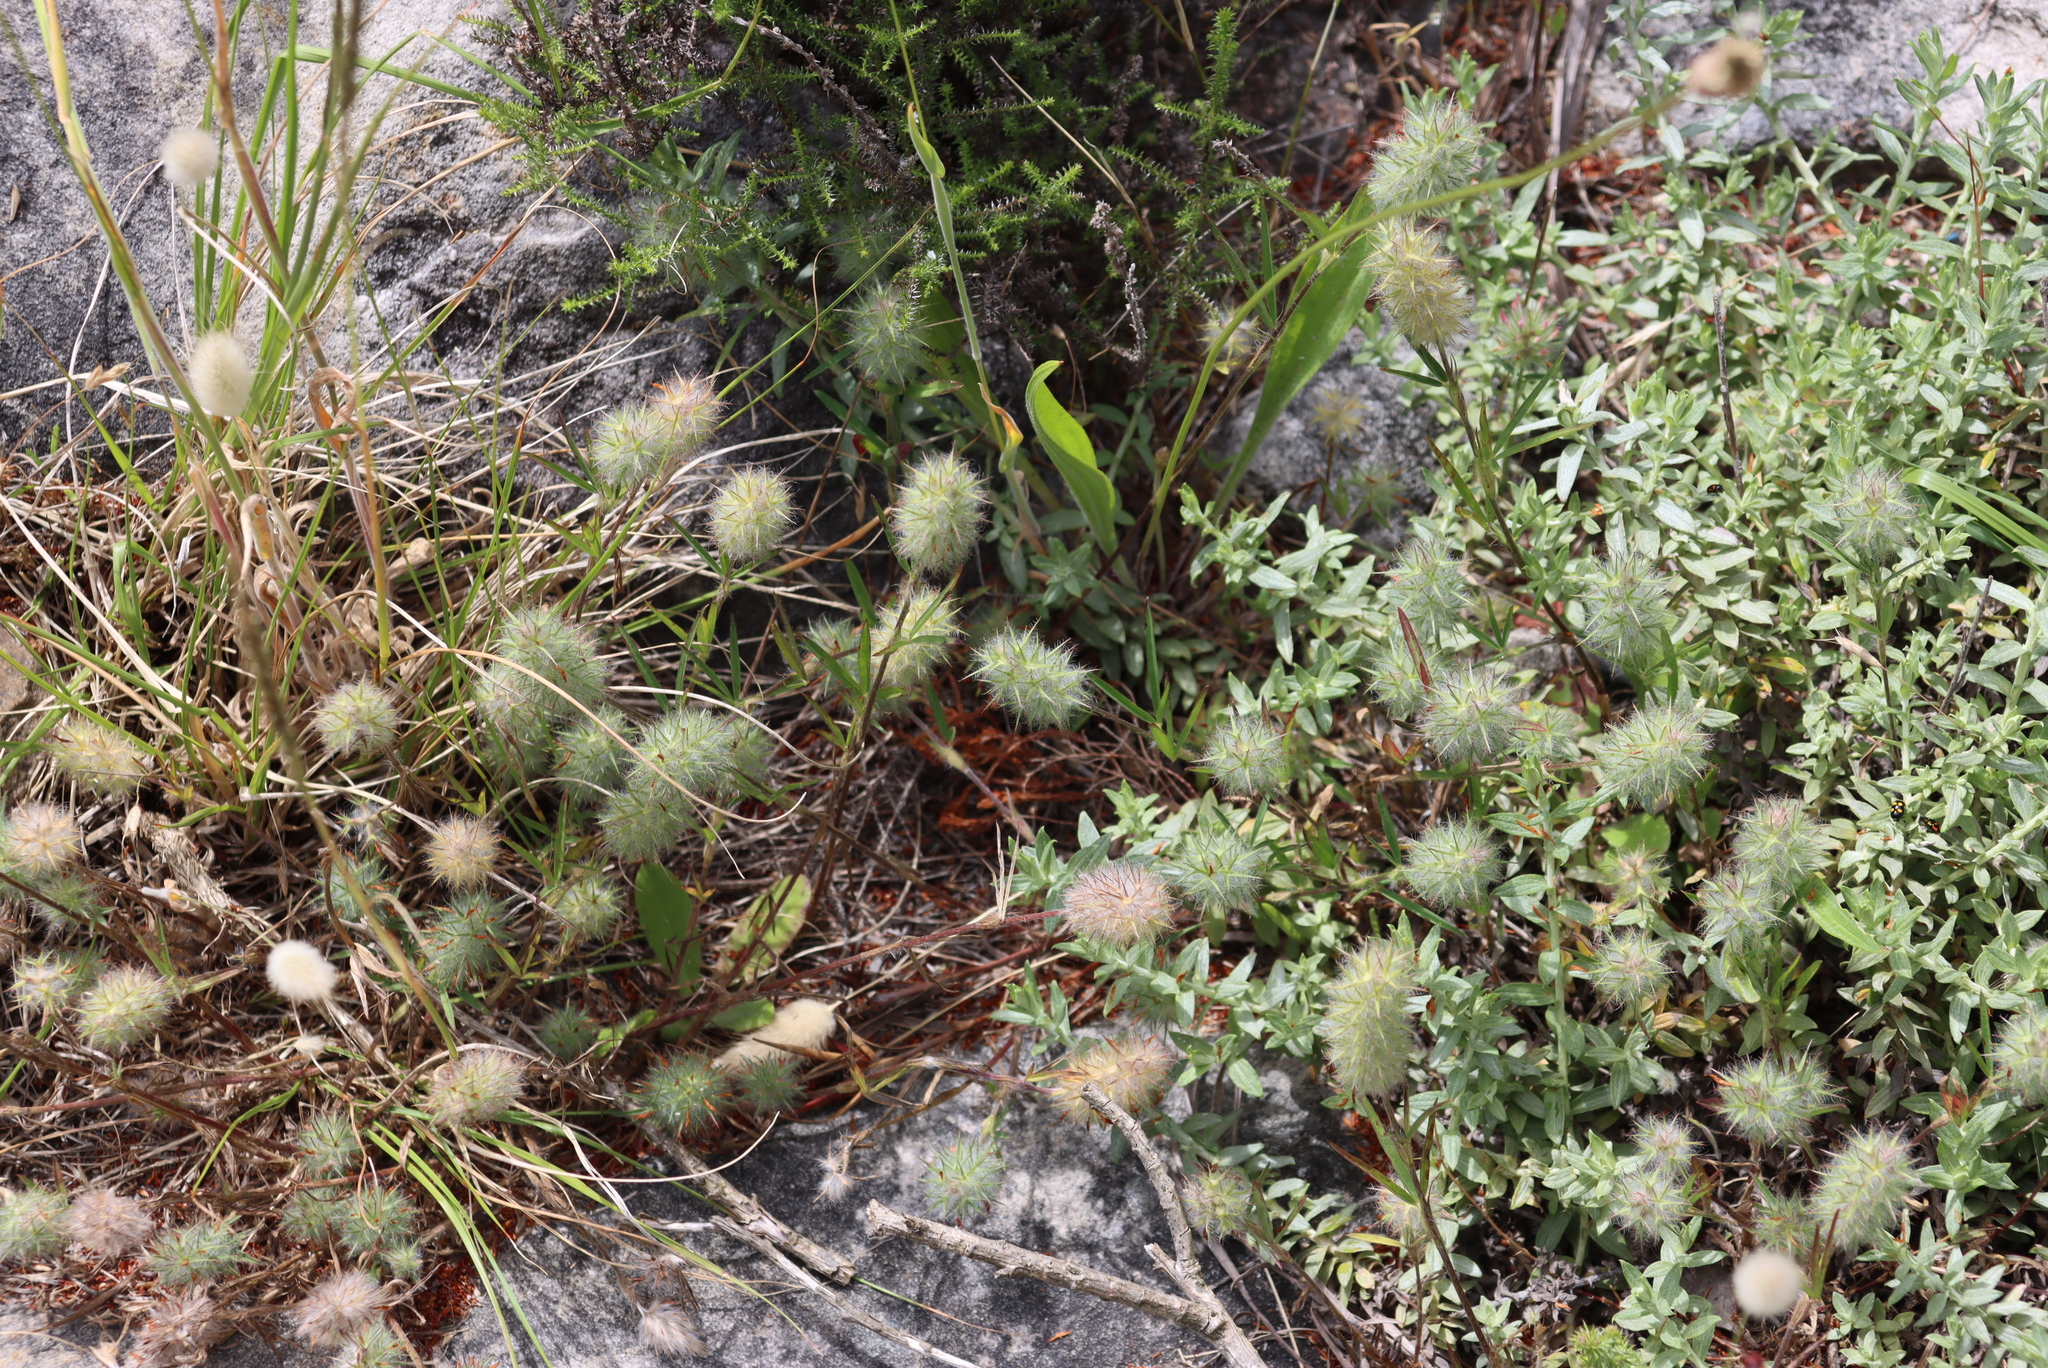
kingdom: Plantae
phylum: Tracheophyta
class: Magnoliopsida
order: Fabales
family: Fabaceae
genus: Trifolium
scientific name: Trifolium angustifolium
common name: Narrow clover
